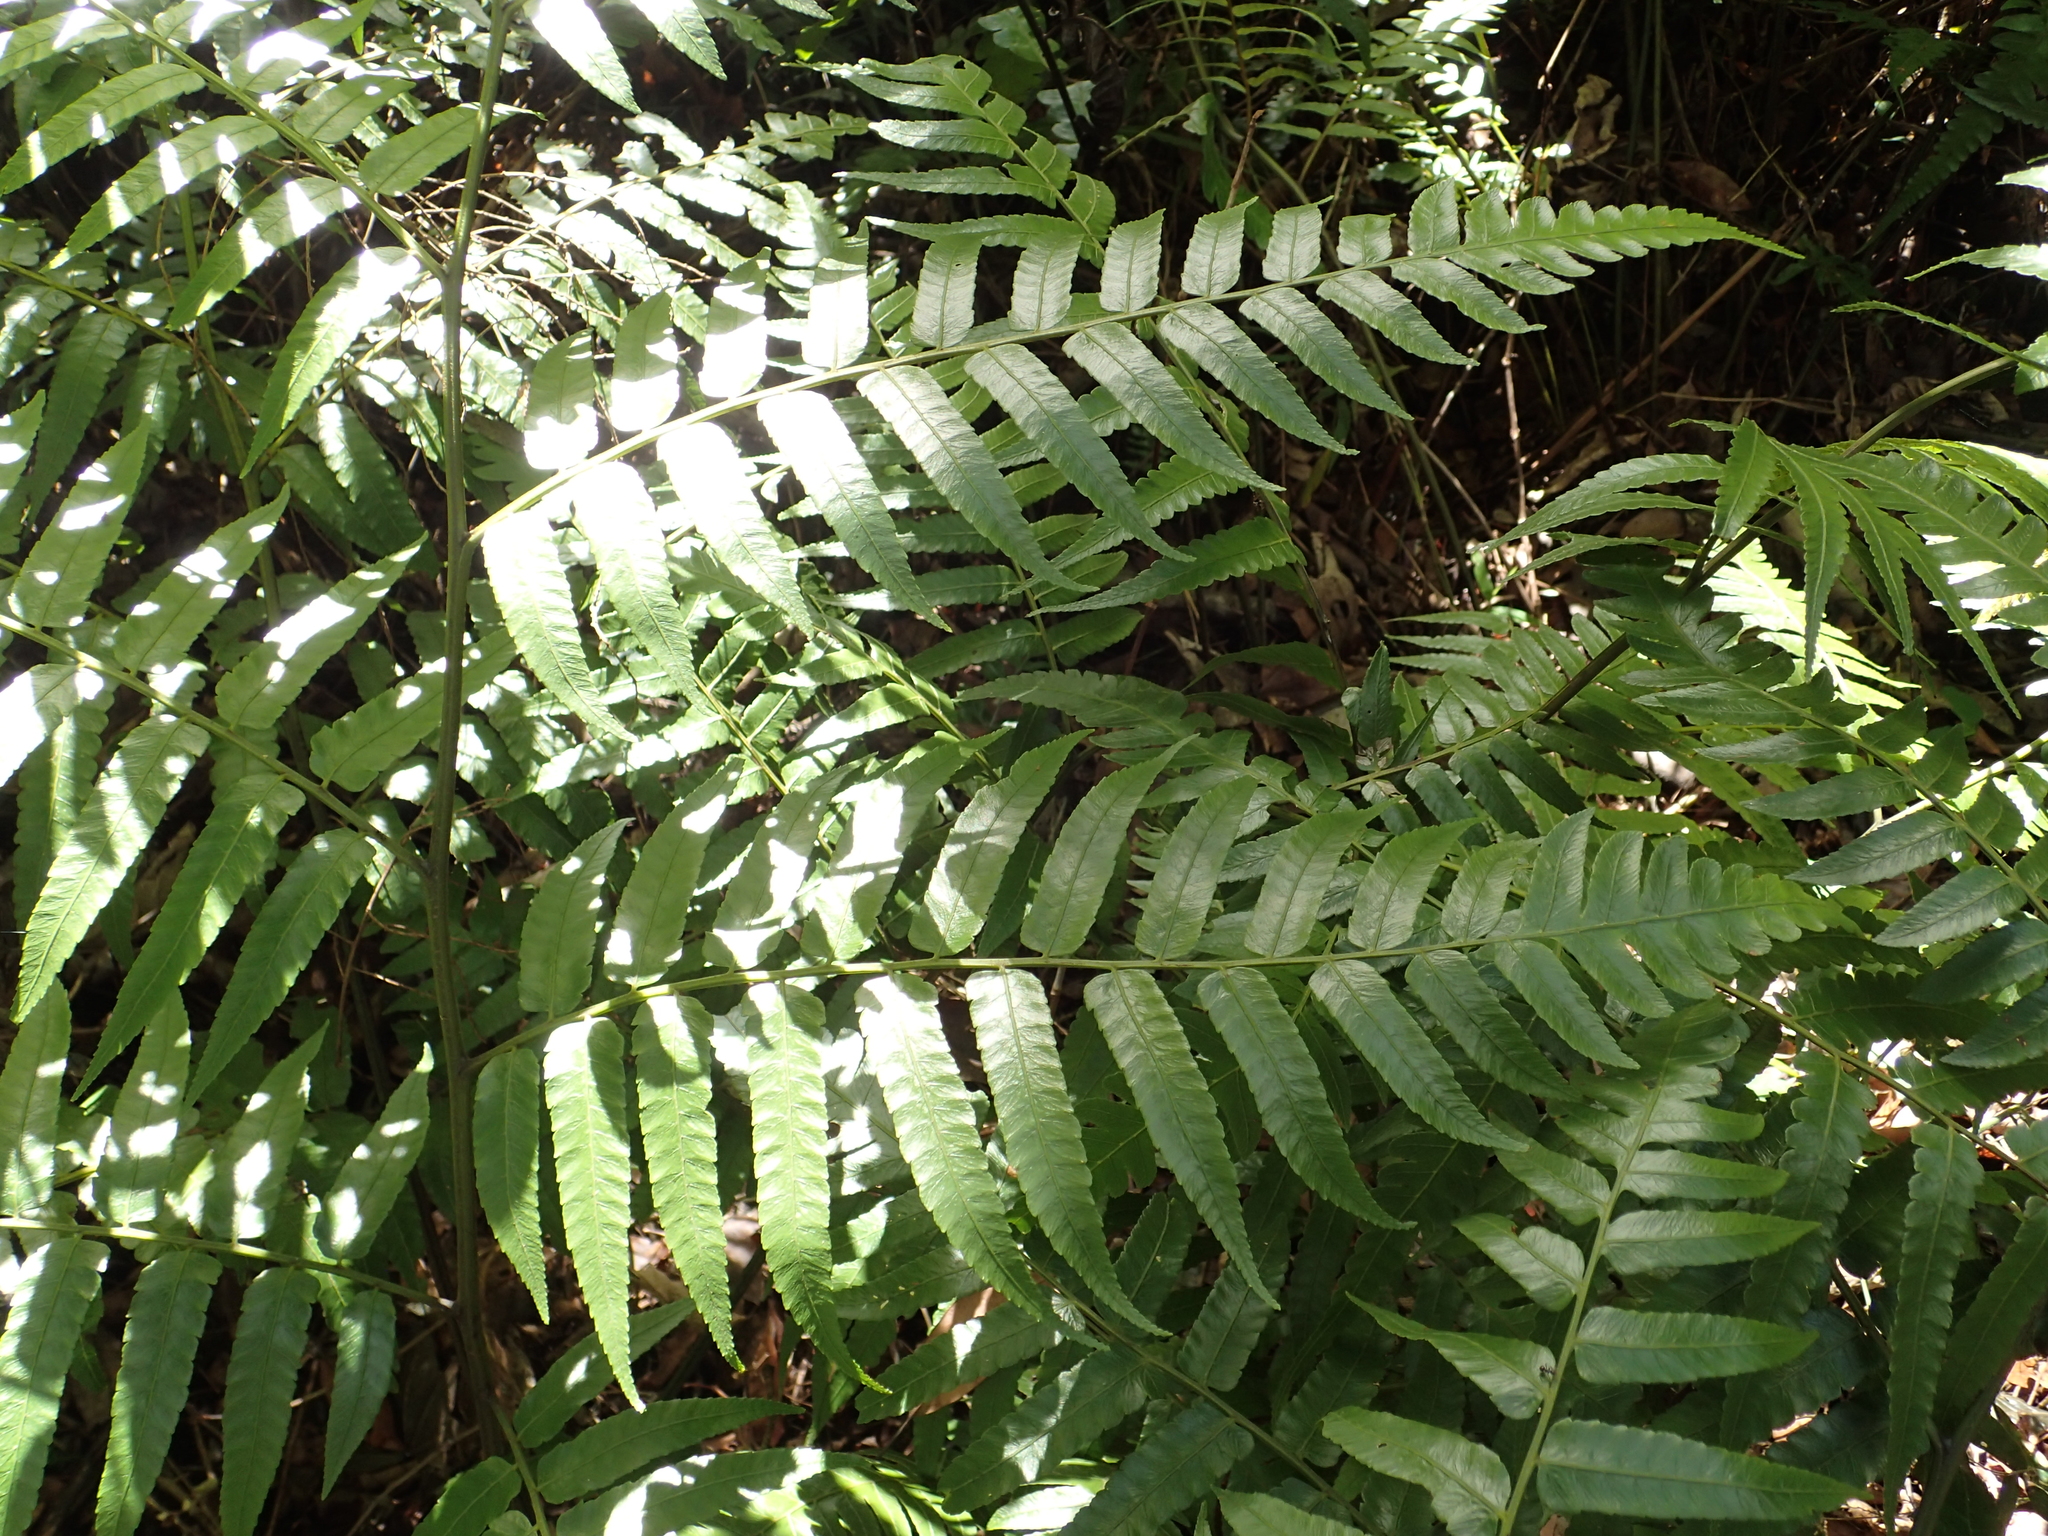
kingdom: Plantae
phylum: Tracheophyta
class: Polypodiopsida
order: Polypodiales
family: Athyriaceae
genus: Diplazium
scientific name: Diplazium esculentum
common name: Vegetable fern
